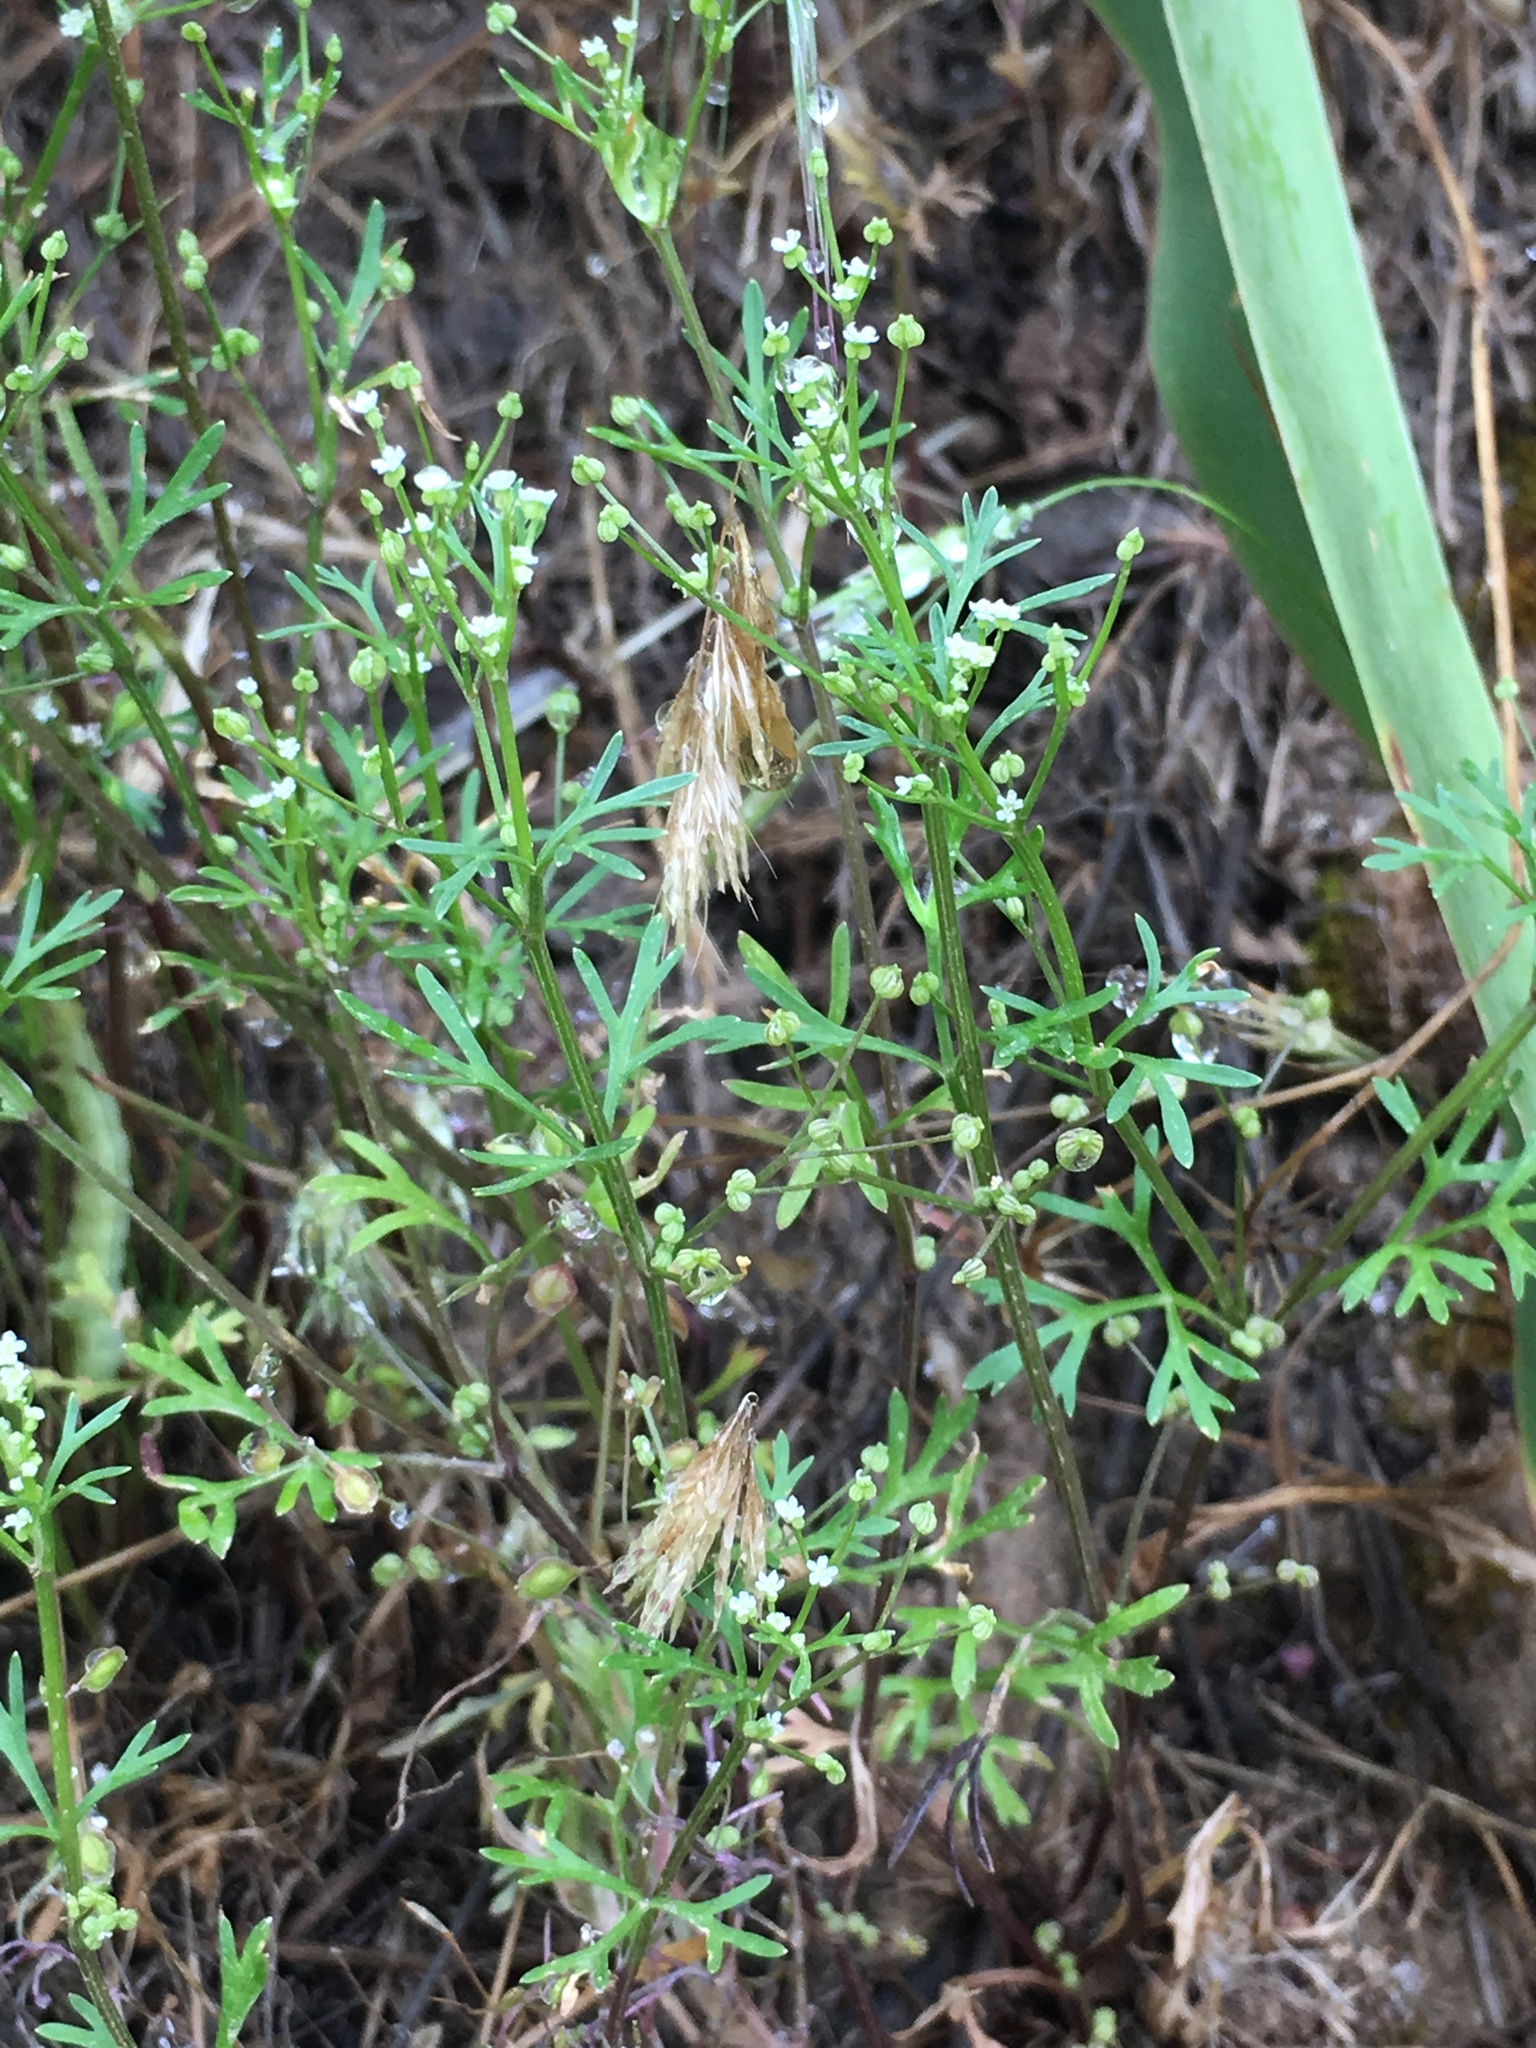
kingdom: Plantae
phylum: Tracheophyta
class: Magnoliopsida
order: Apiales
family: Apiaceae
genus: Apiastrum
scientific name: Apiastrum angustifolium
